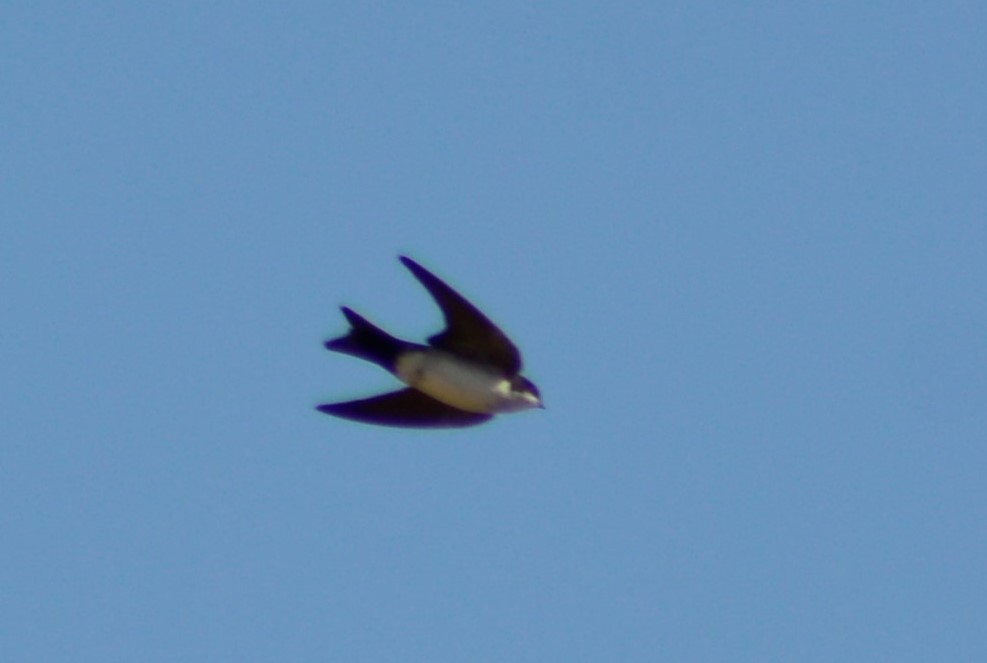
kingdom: Animalia
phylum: Chordata
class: Aves
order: Passeriformes
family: Hirundinidae
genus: Notiochelidon
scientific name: Notiochelidon cyanoleuca
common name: Blue-and-white swallow
